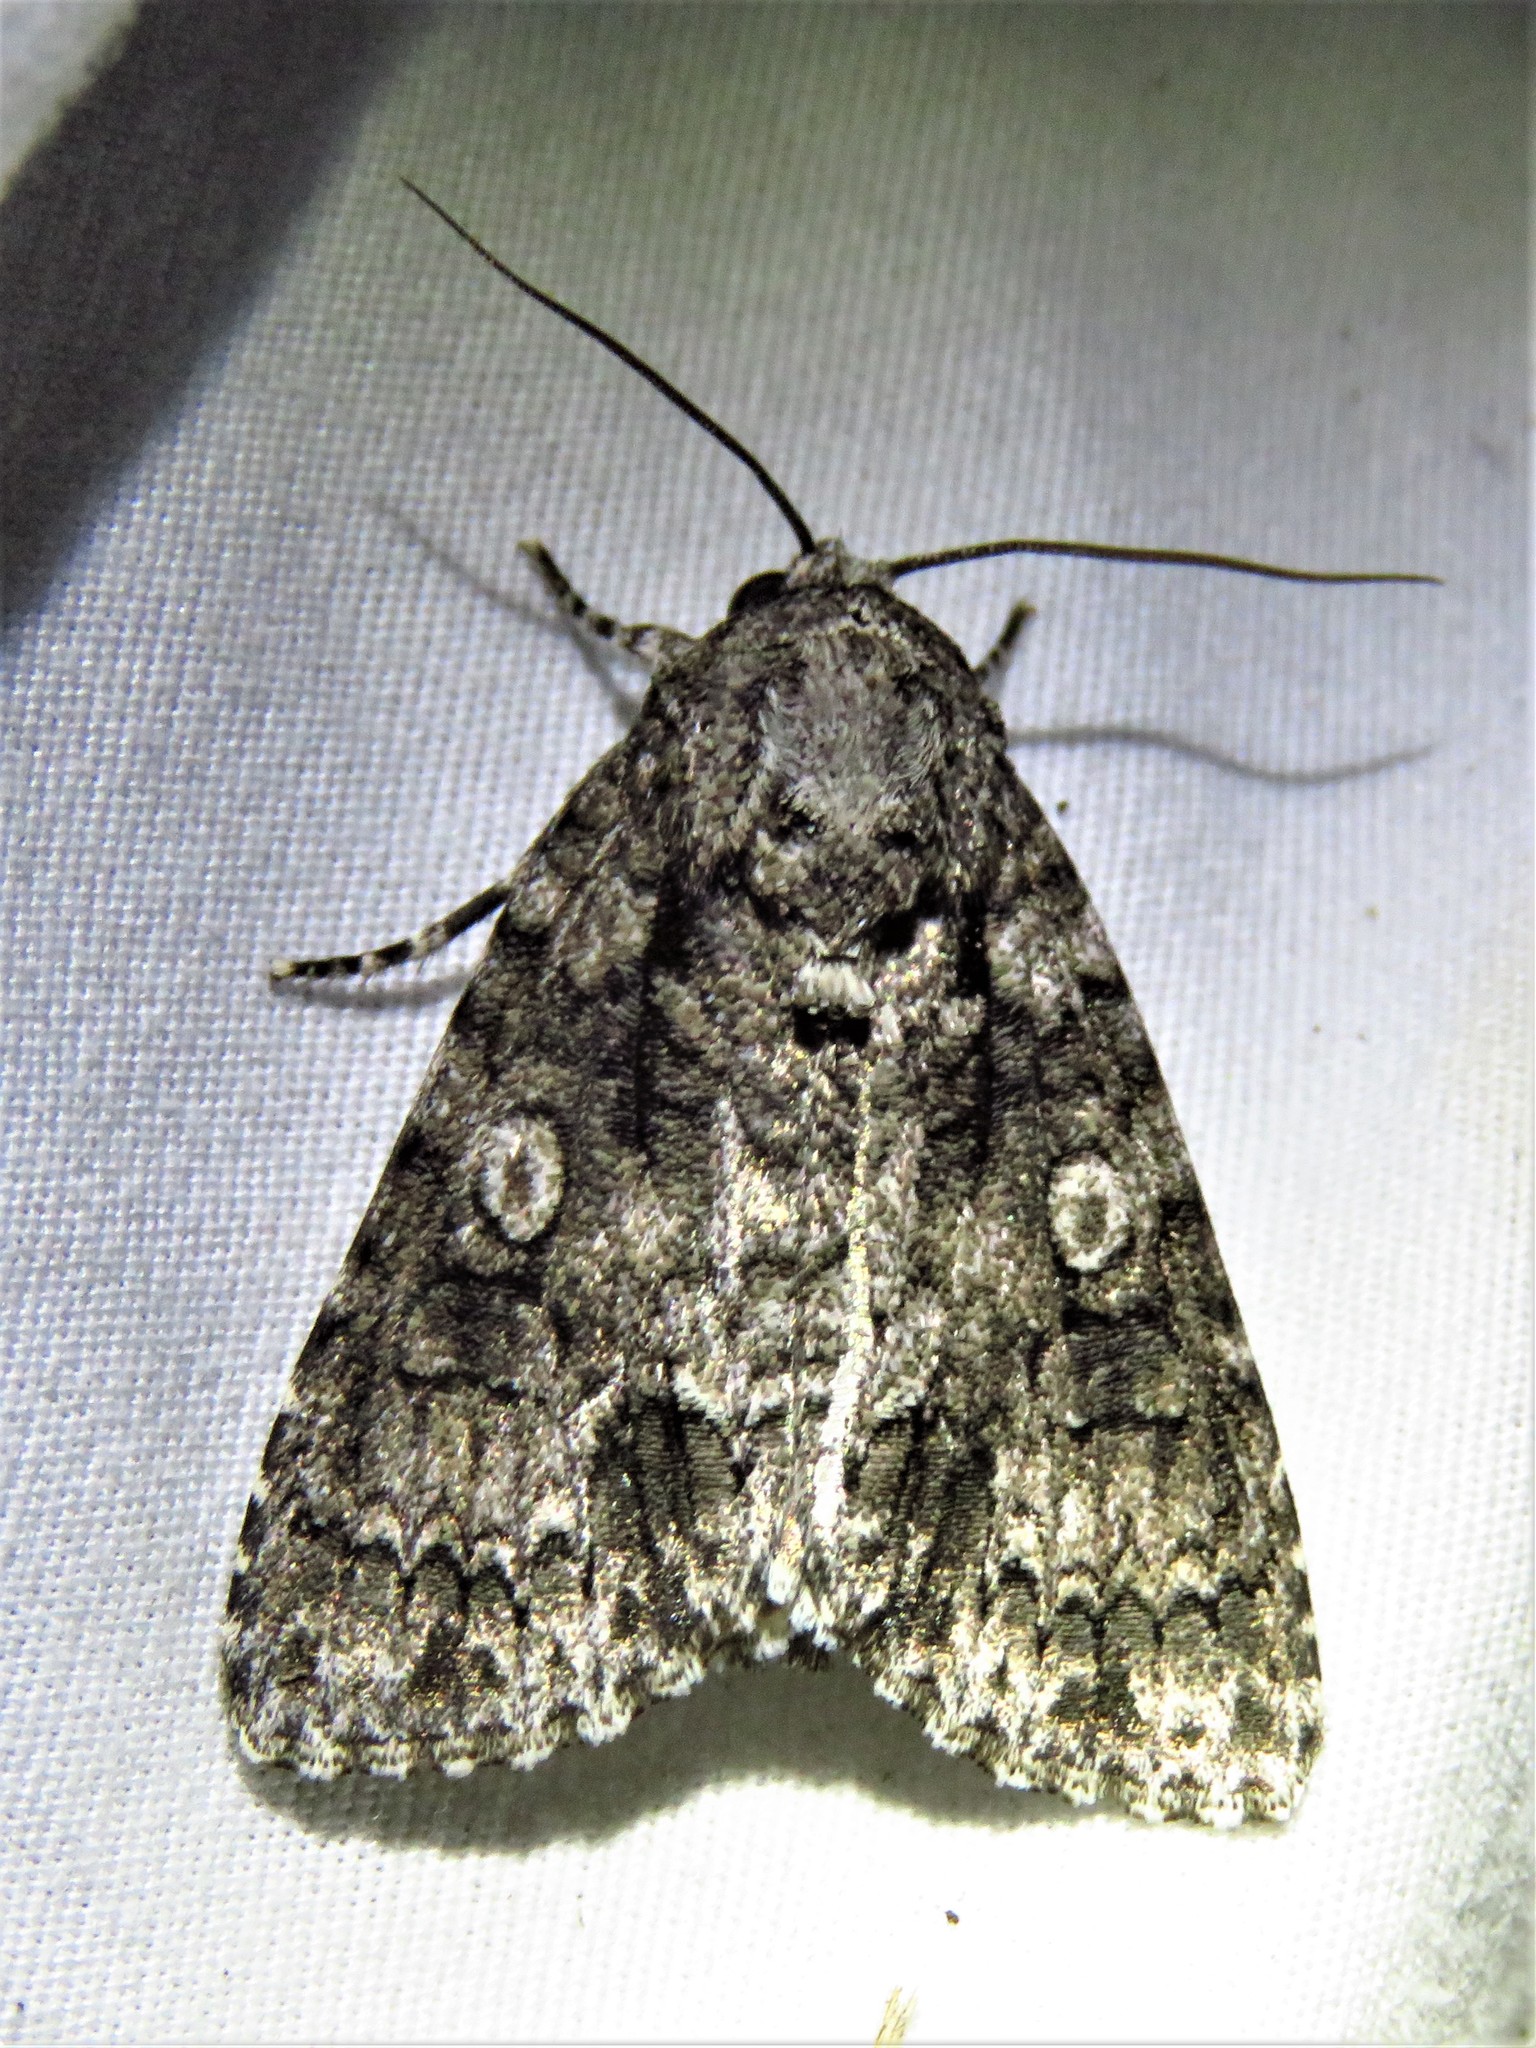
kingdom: Animalia
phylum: Arthropoda
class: Insecta
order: Lepidoptera
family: Noctuidae
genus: Acronicta
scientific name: Acronicta brumosa
